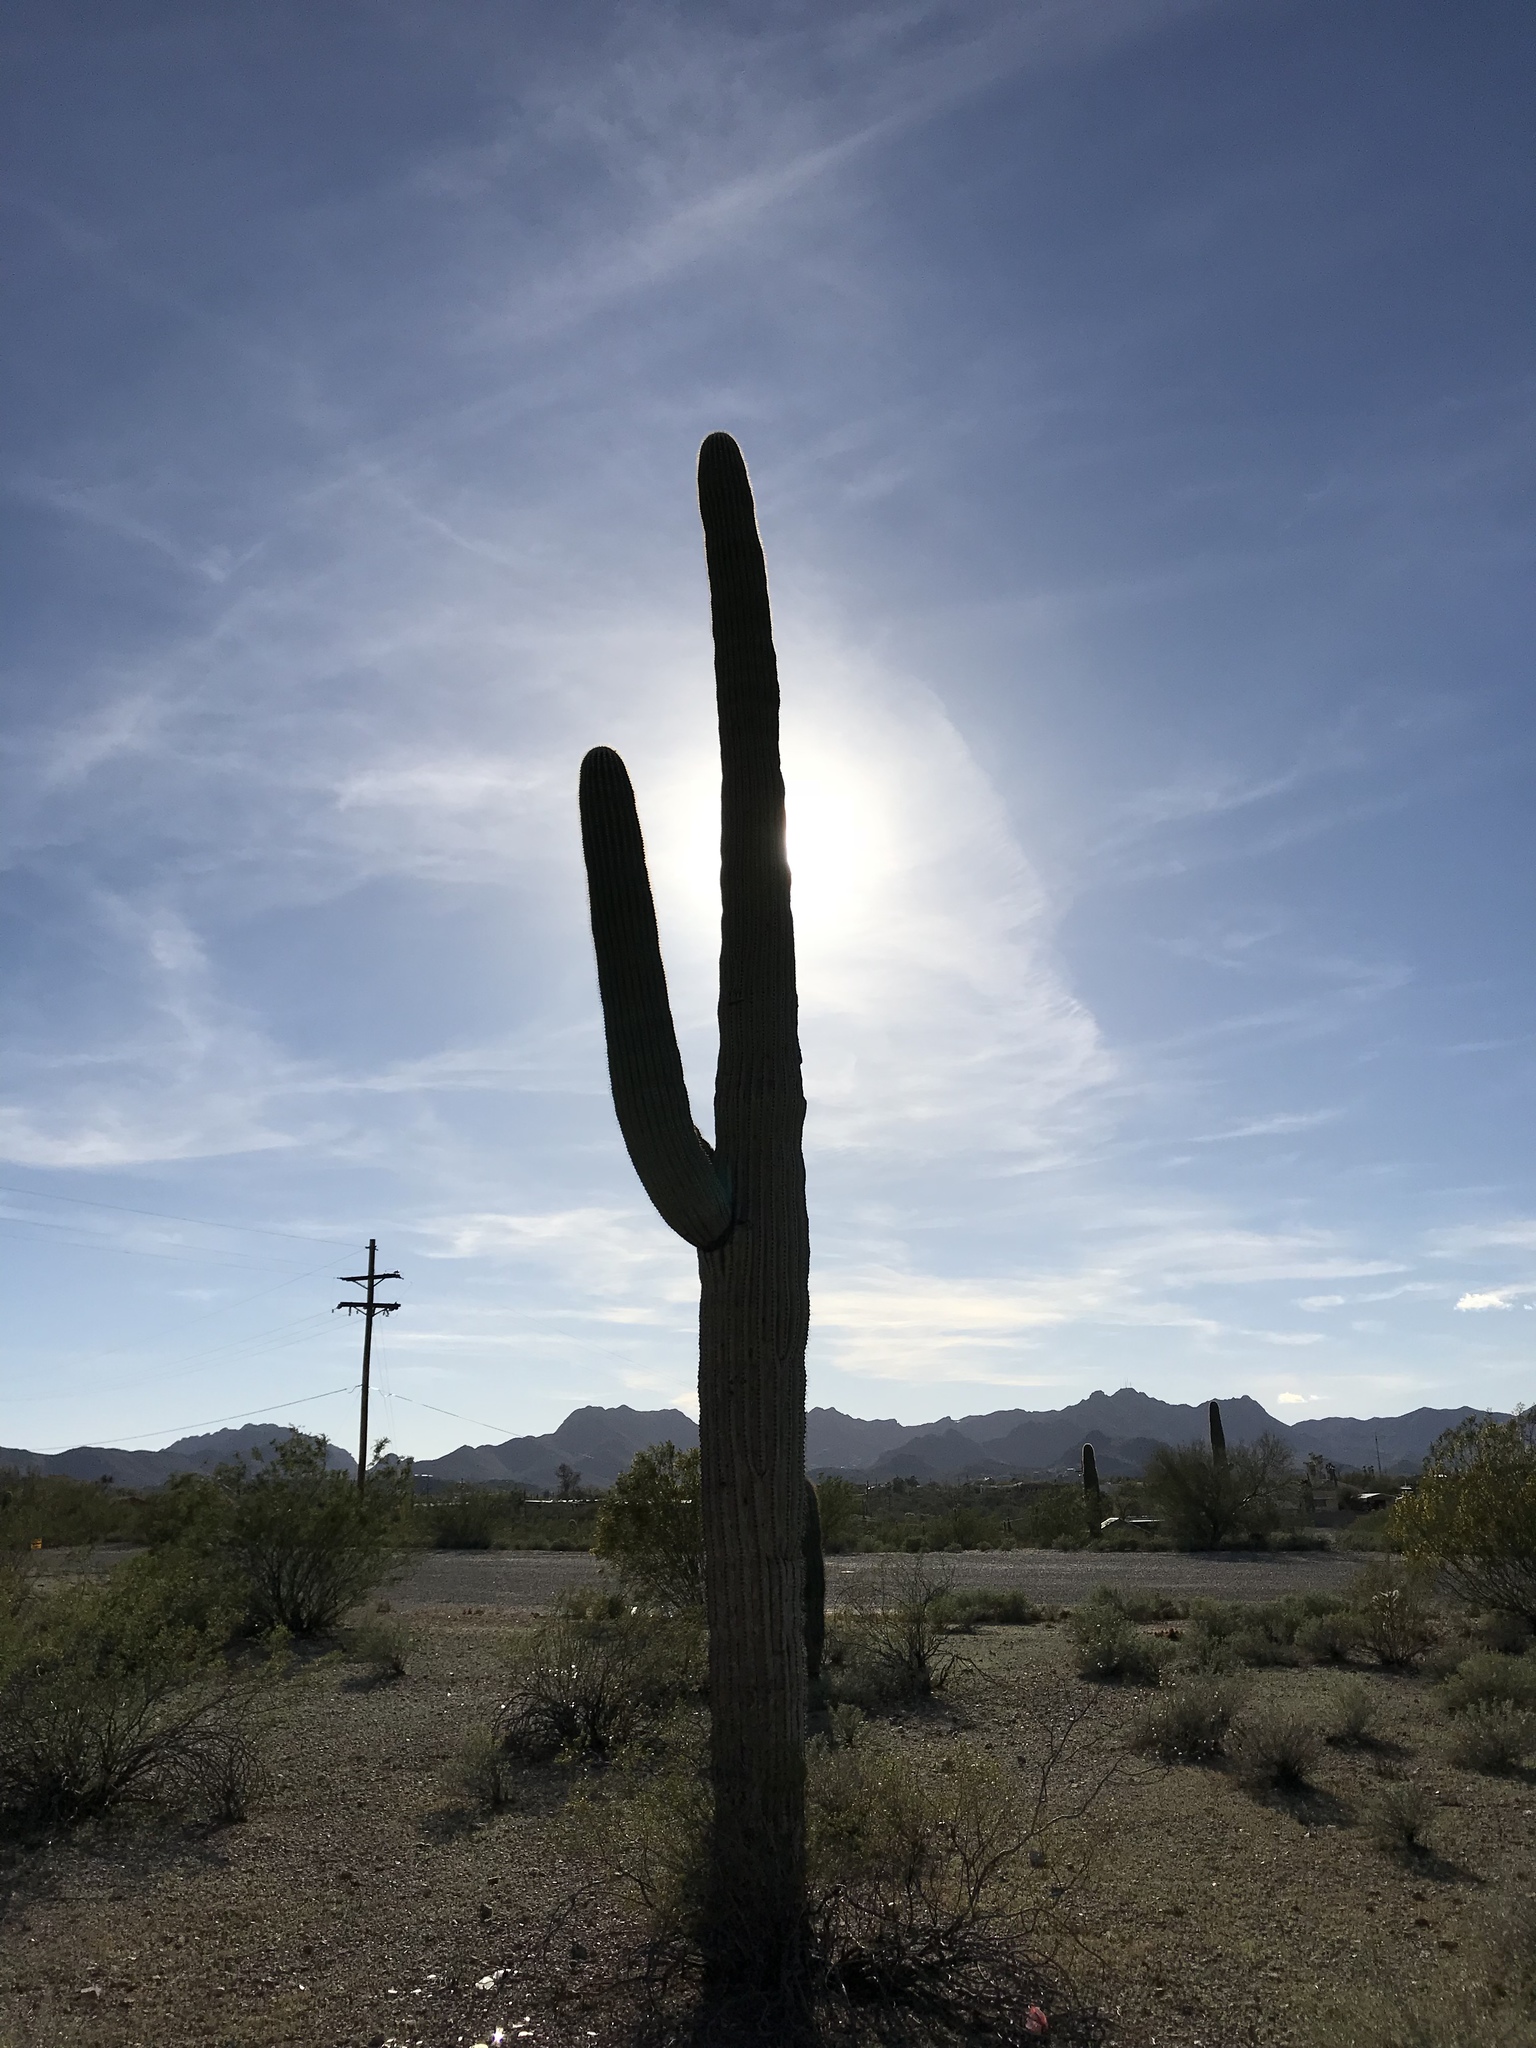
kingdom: Plantae
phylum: Tracheophyta
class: Magnoliopsida
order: Caryophyllales
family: Cactaceae
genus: Carnegiea
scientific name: Carnegiea gigantea
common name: Saguaro
